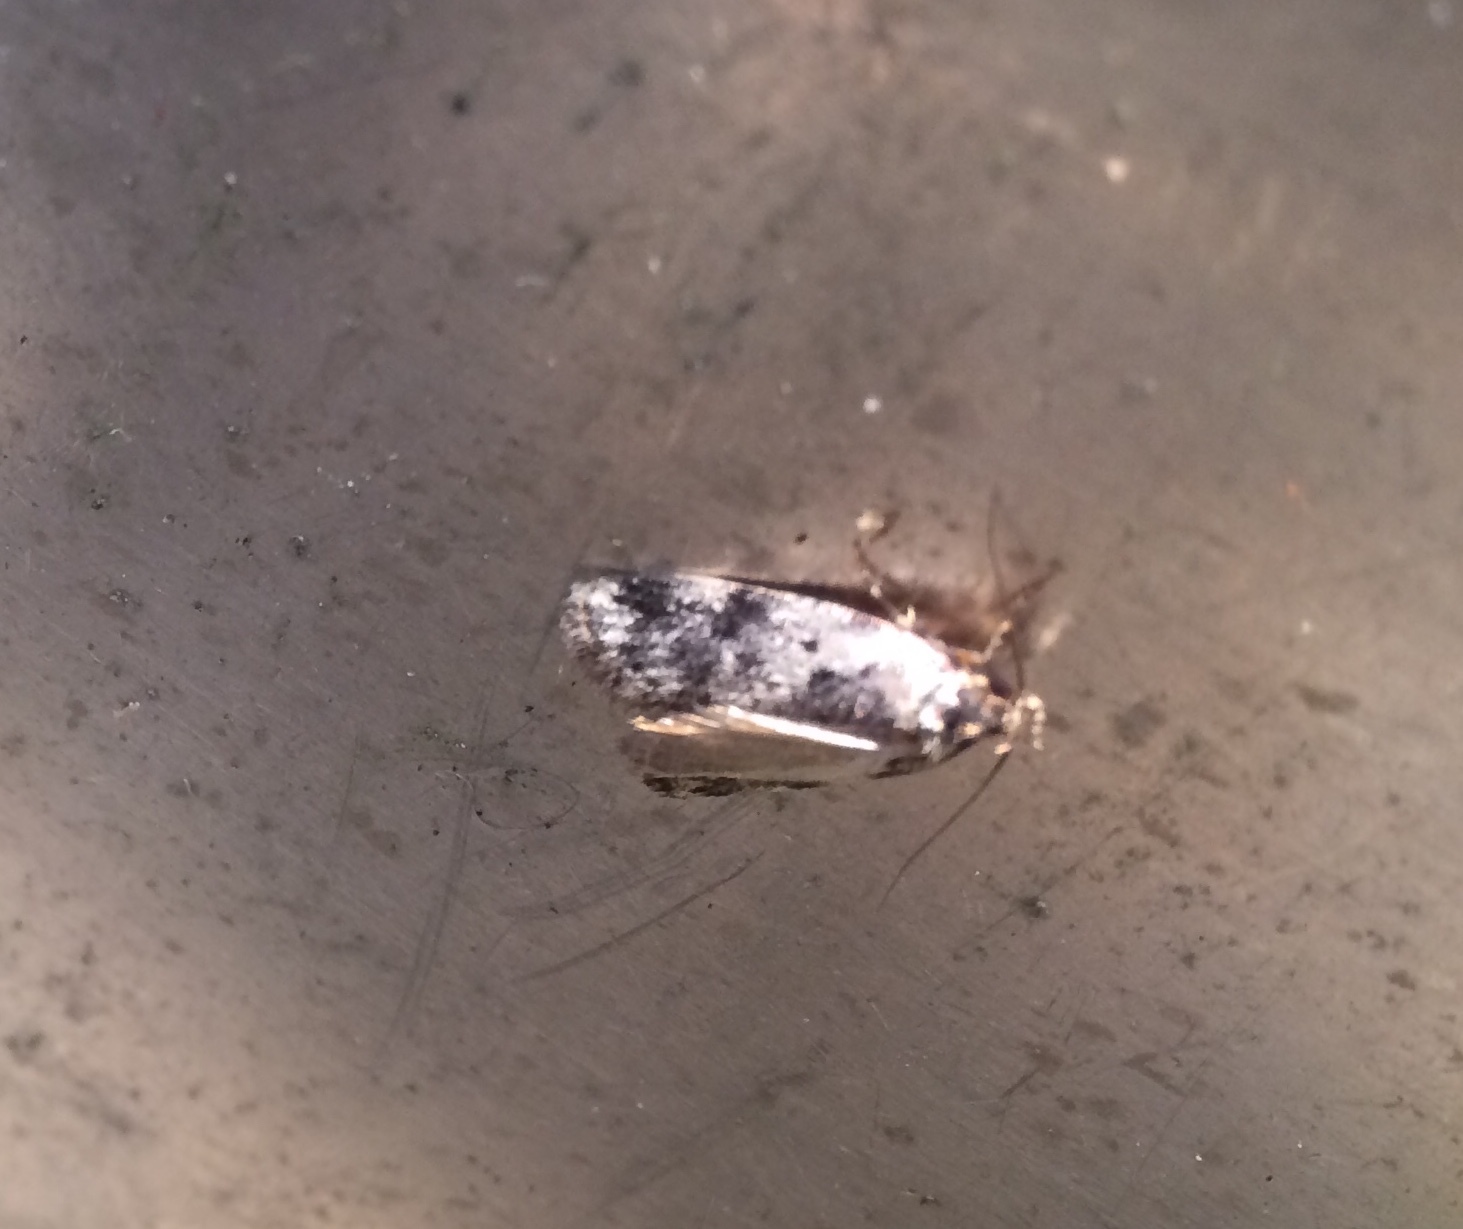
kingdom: Animalia
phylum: Arthropoda
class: Insecta
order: Lepidoptera
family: Oecophoridae
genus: Barea
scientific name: Barea
